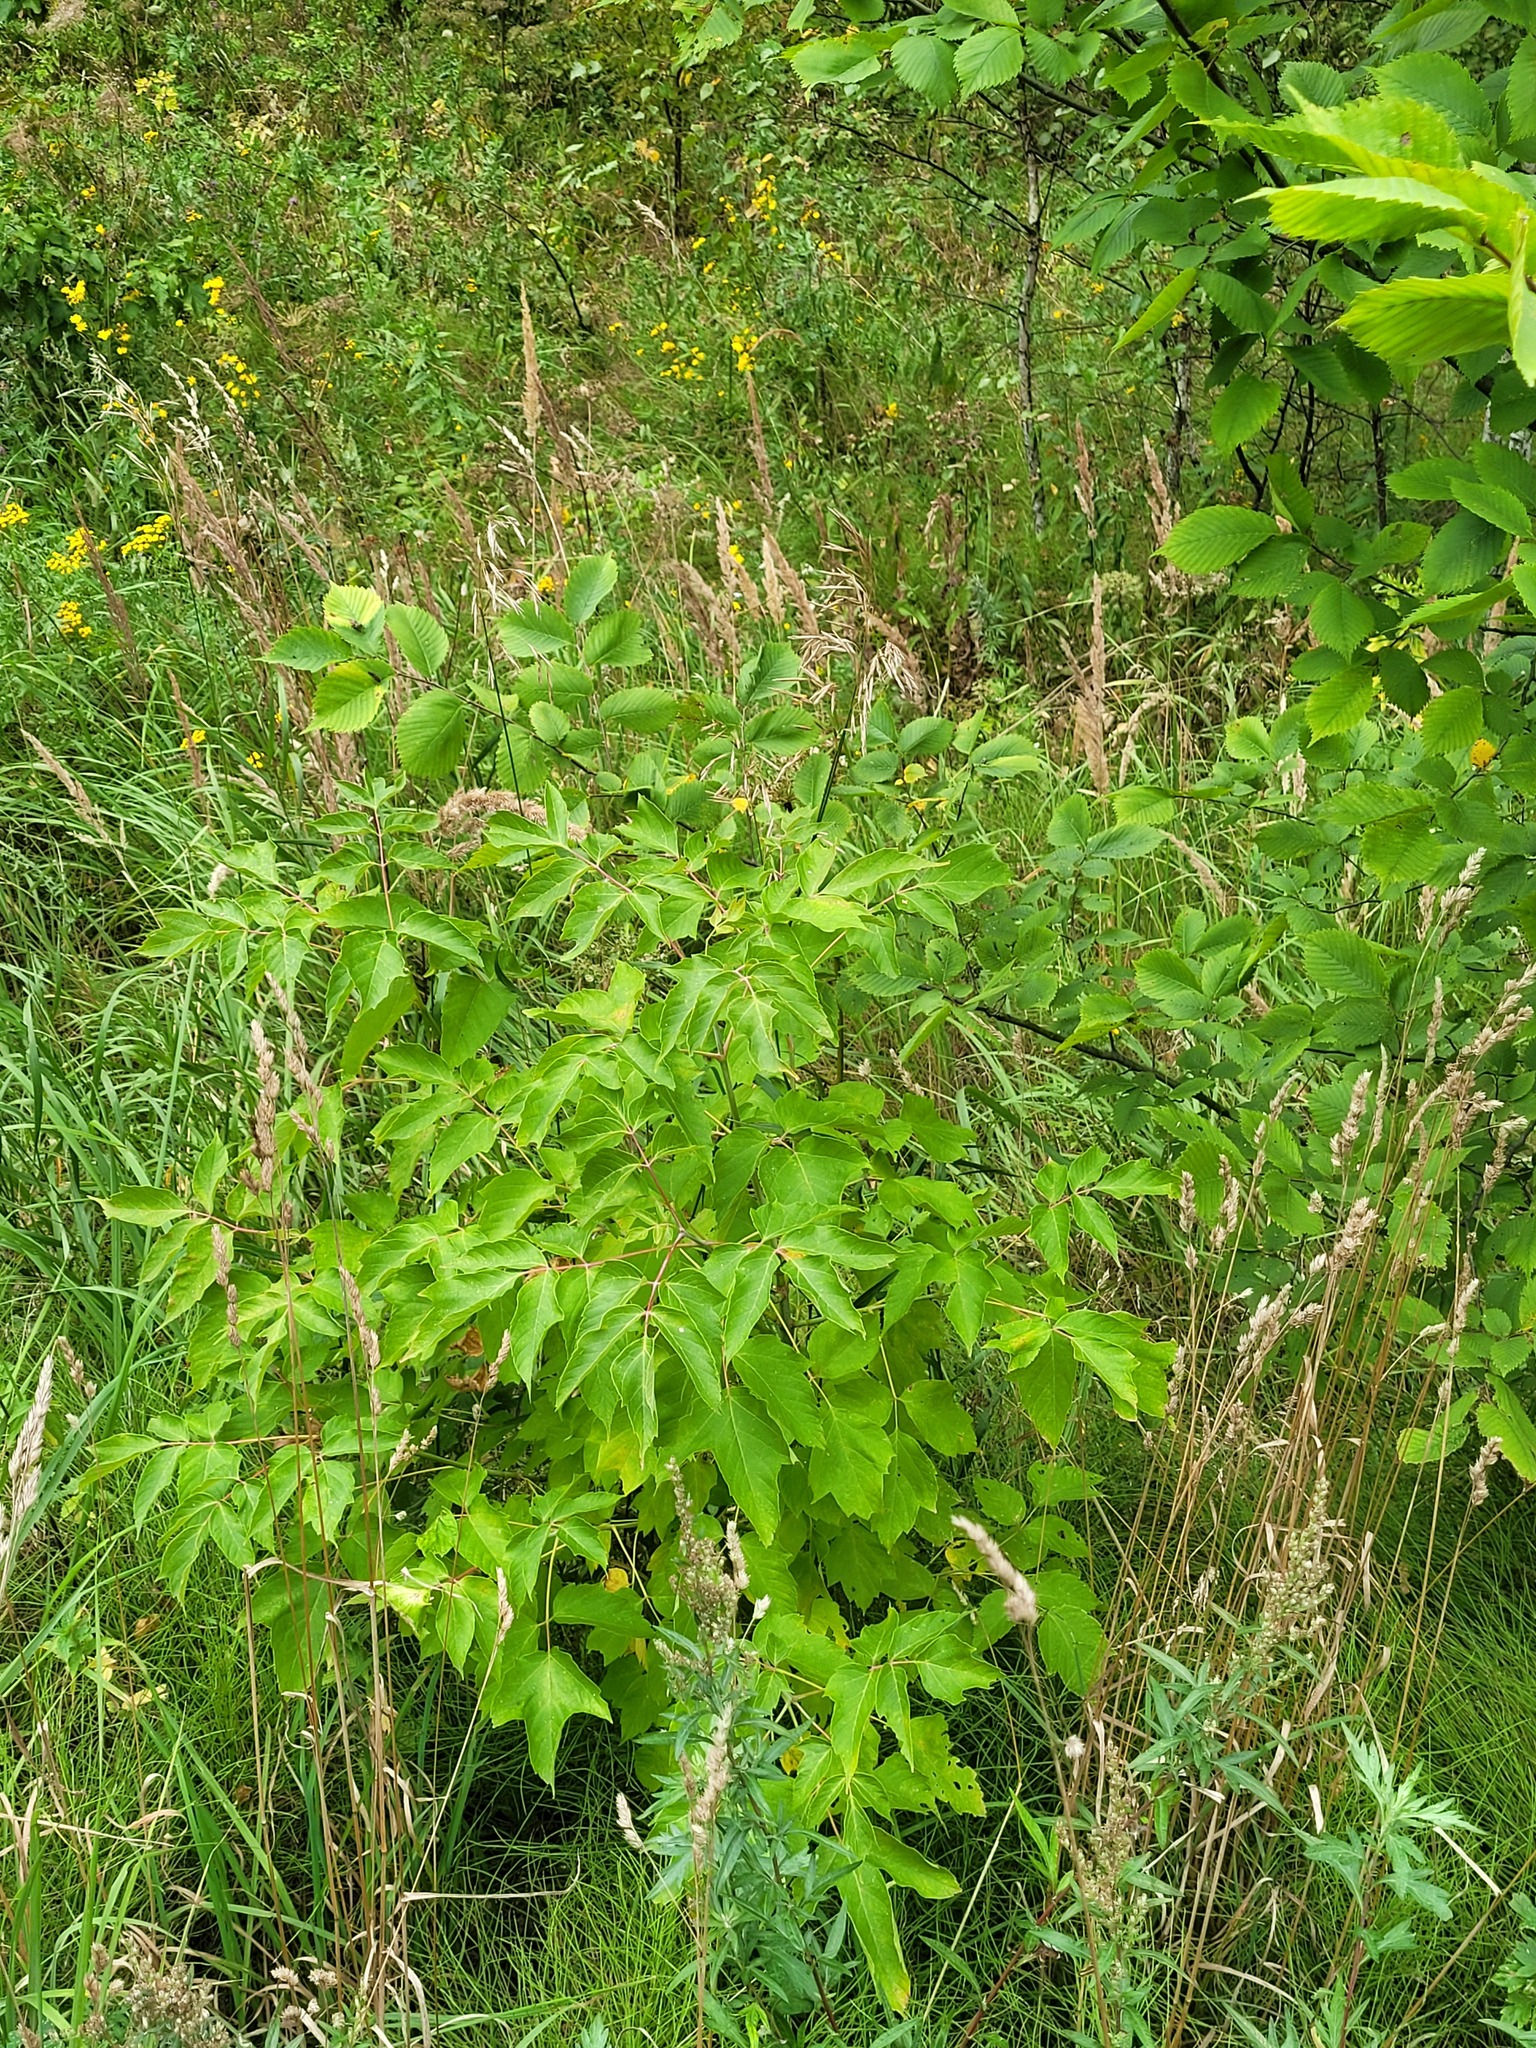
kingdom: Plantae
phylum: Tracheophyta
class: Magnoliopsida
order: Sapindales
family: Sapindaceae
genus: Acer
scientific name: Acer negundo
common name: Ashleaf maple
